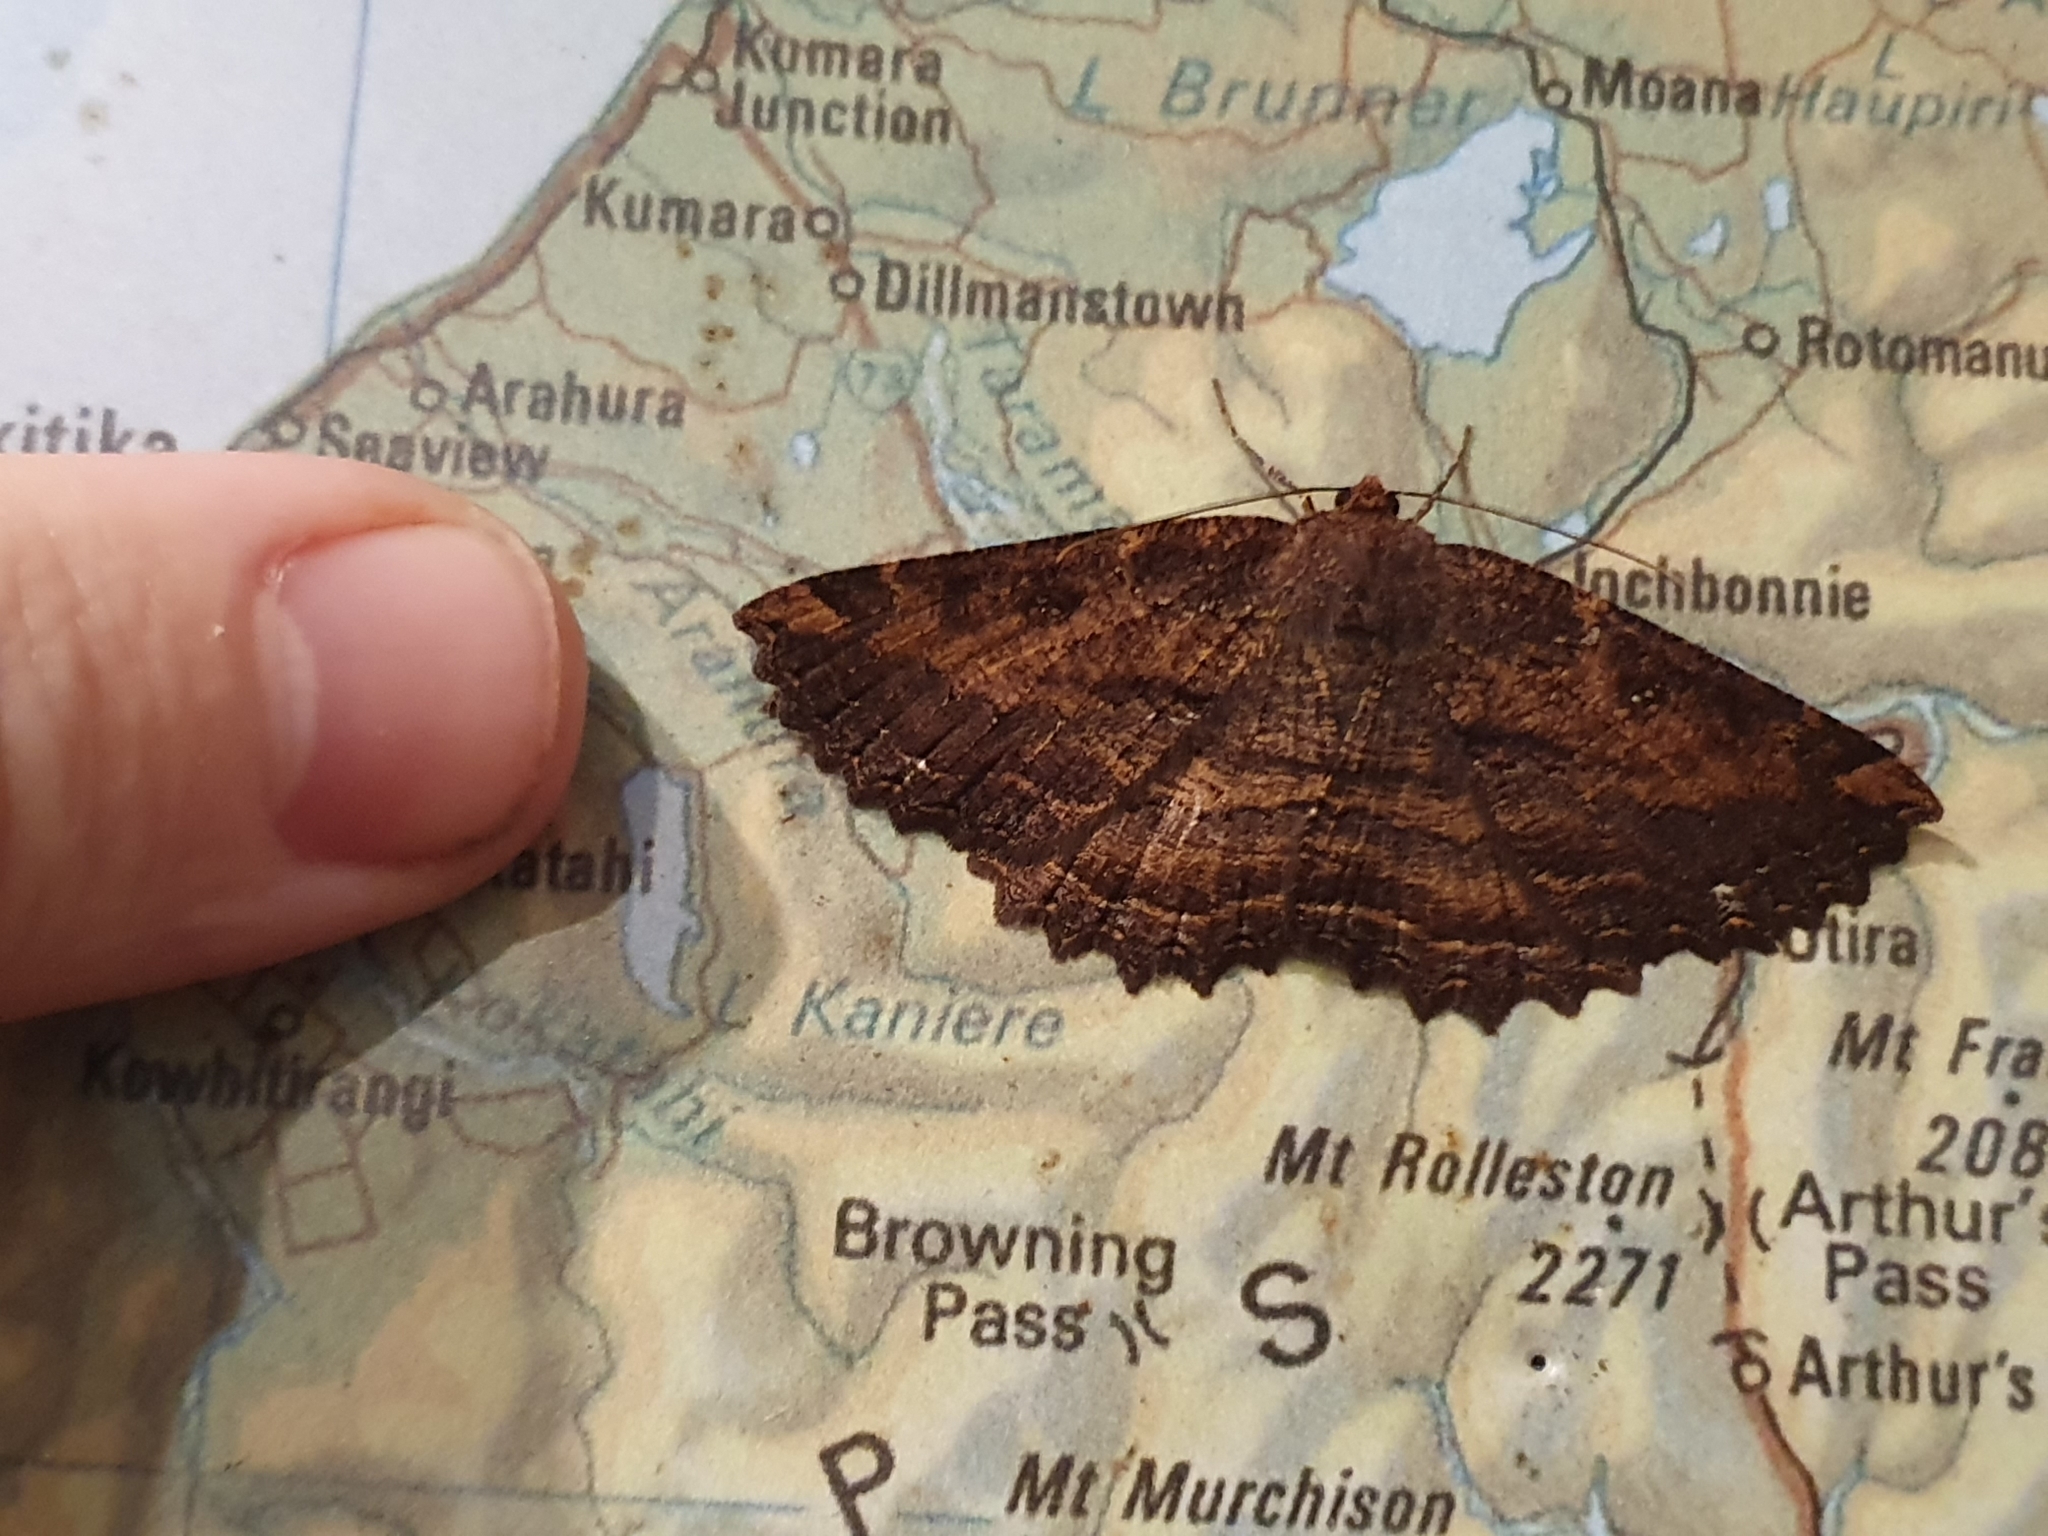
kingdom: Animalia
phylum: Arthropoda
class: Insecta
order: Lepidoptera
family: Geometridae
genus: Gellonia
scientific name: Gellonia dejectaria
